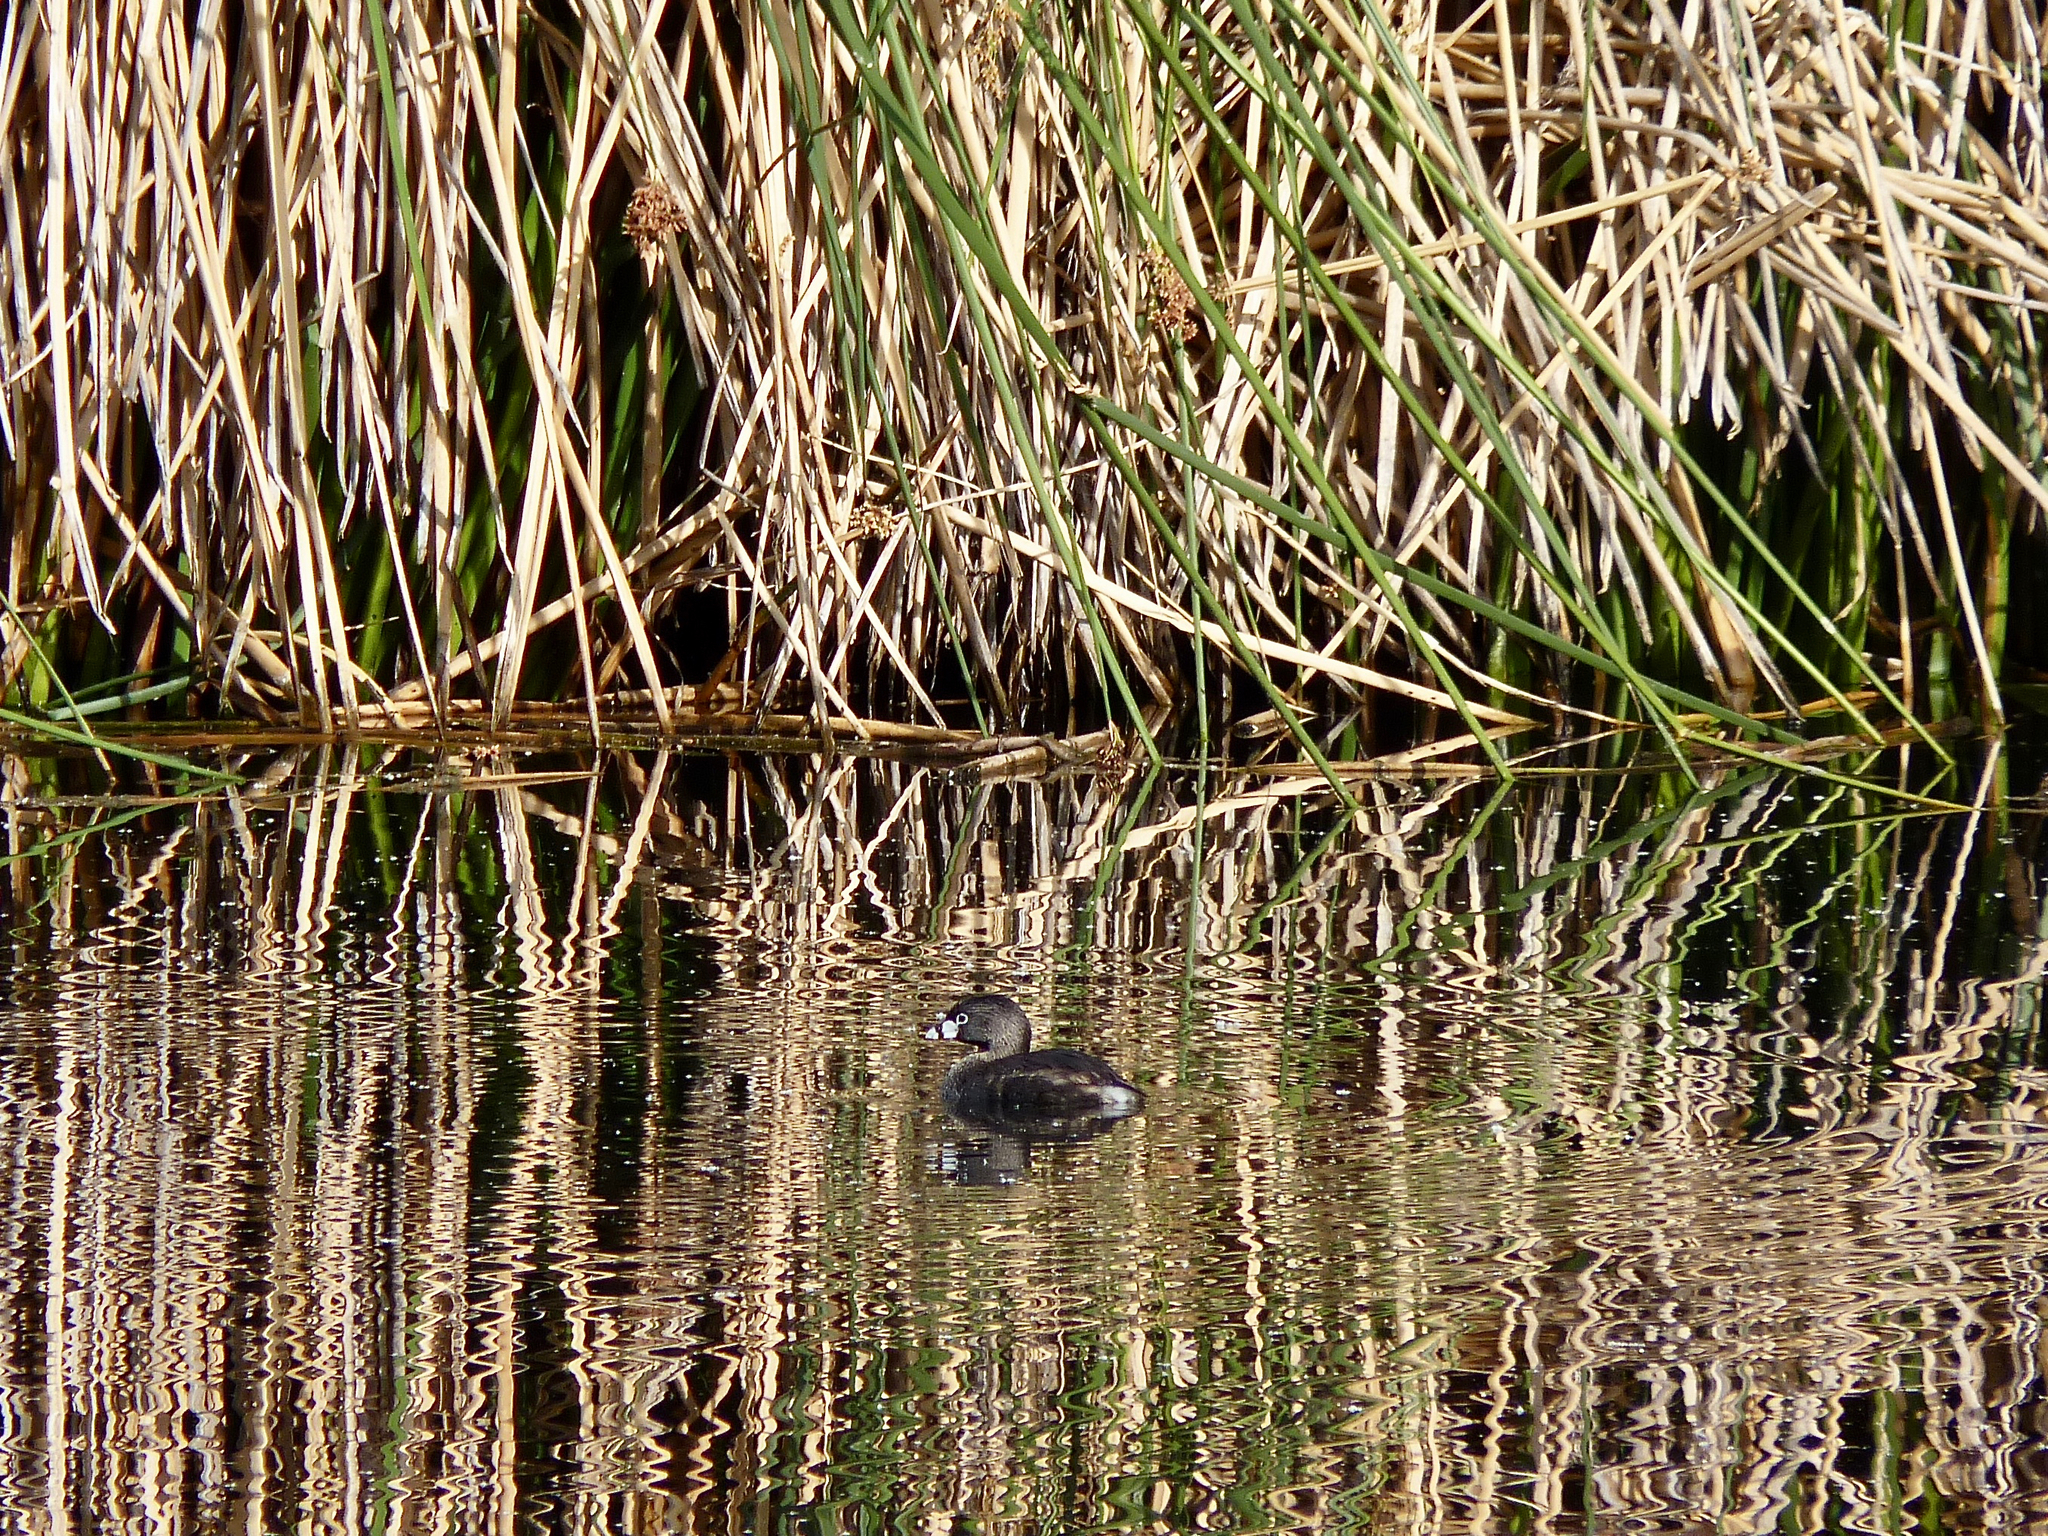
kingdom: Animalia
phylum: Chordata
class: Aves
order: Podicipediformes
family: Podicipedidae
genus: Podilymbus
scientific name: Podilymbus podiceps
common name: Pied-billed grebe
